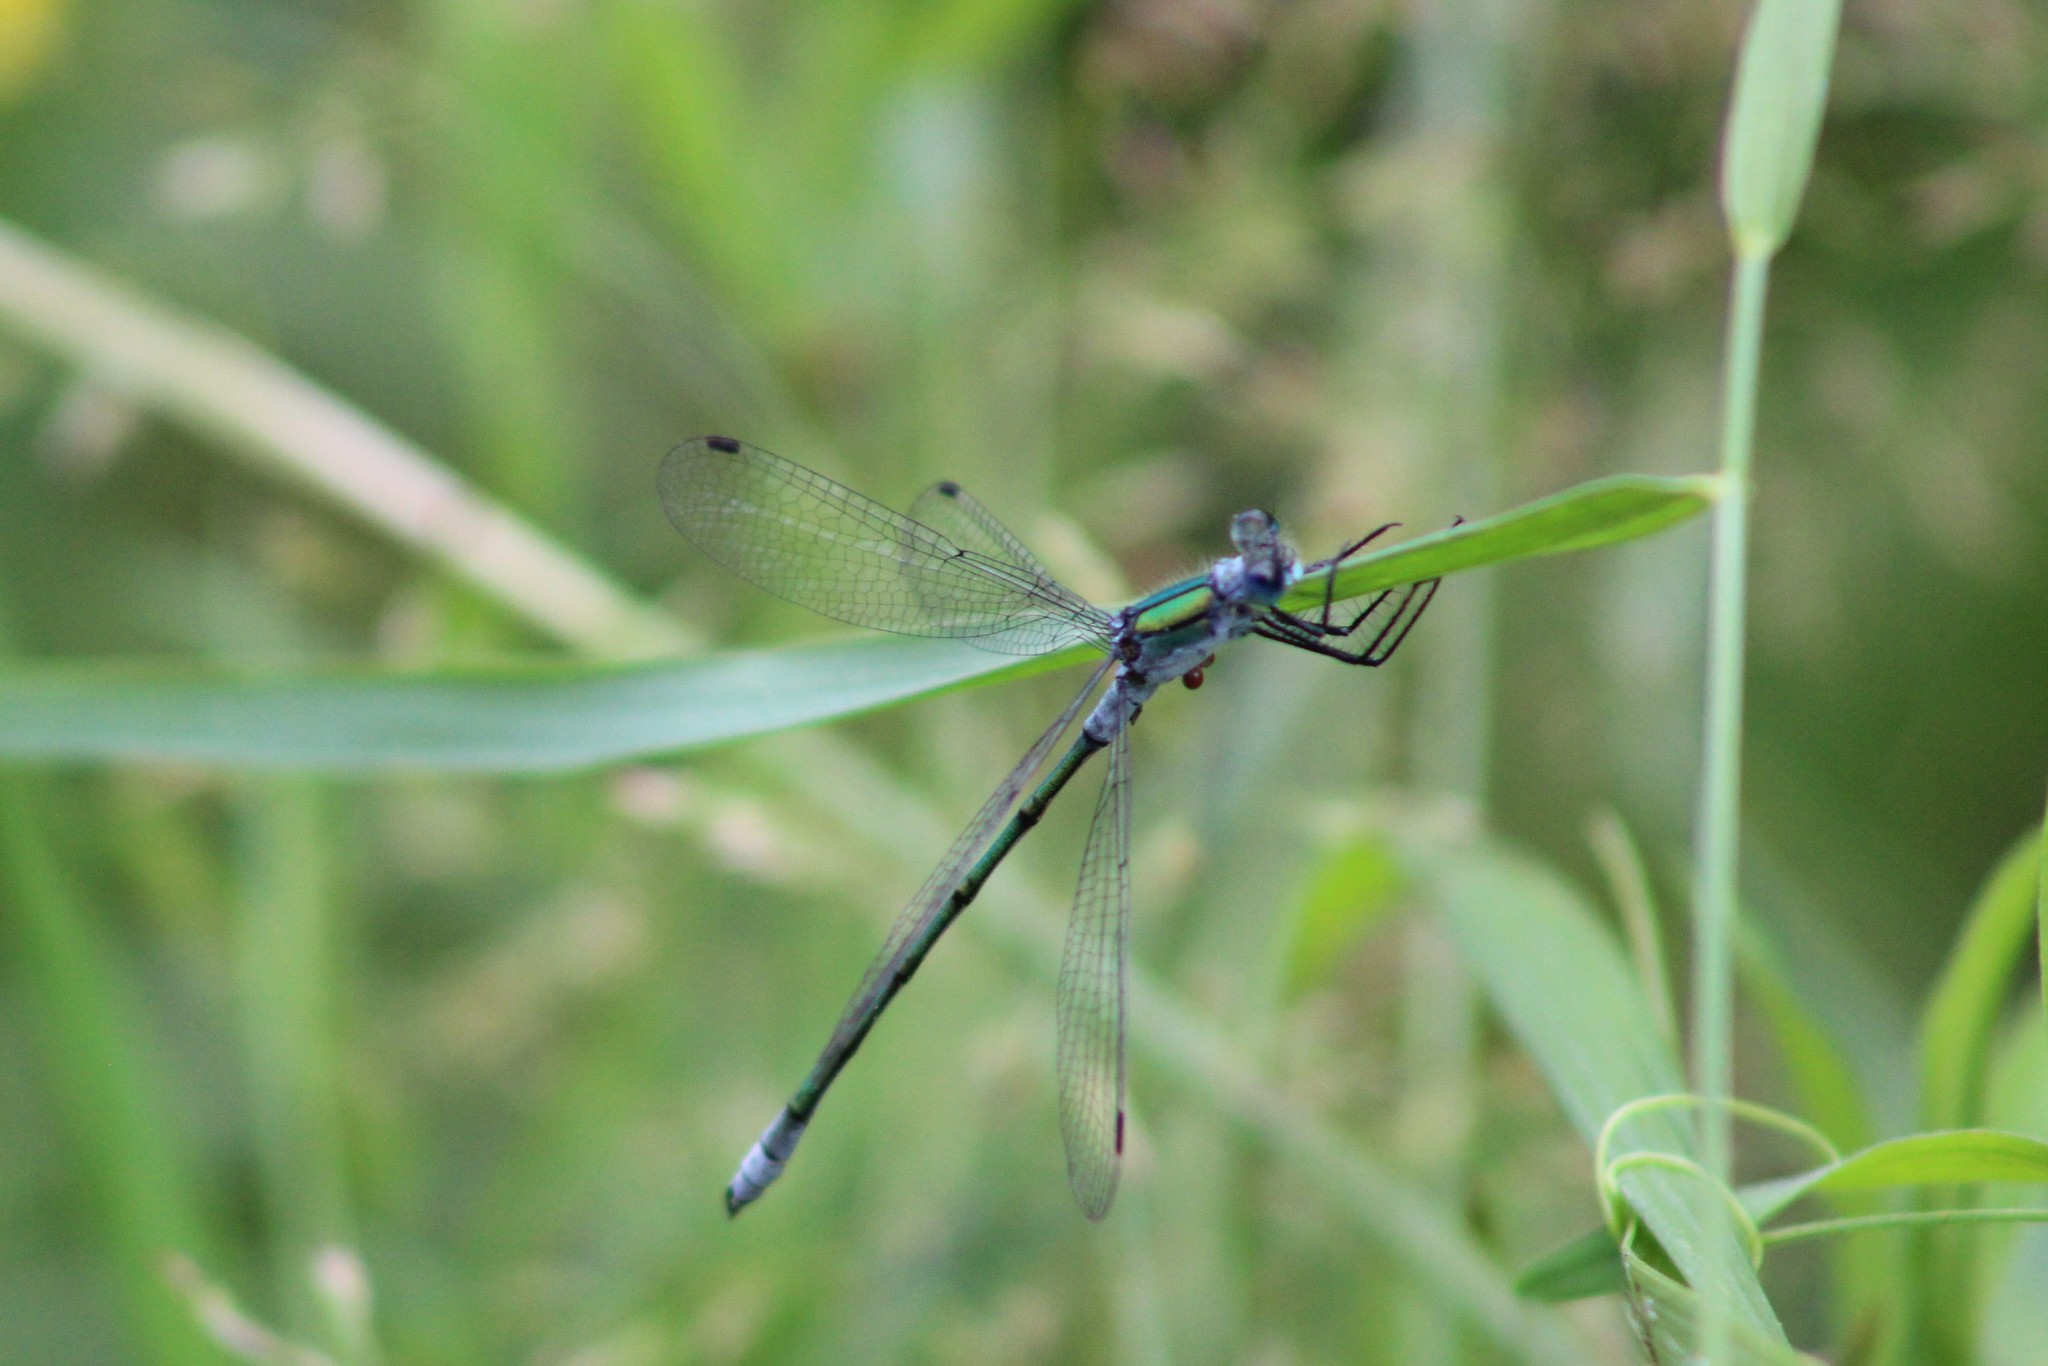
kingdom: Animalia
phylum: Arthropoda
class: Insecta
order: Odonata
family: Lestidae
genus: Lestes
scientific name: Lestes sponsa
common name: Common spreadwing
